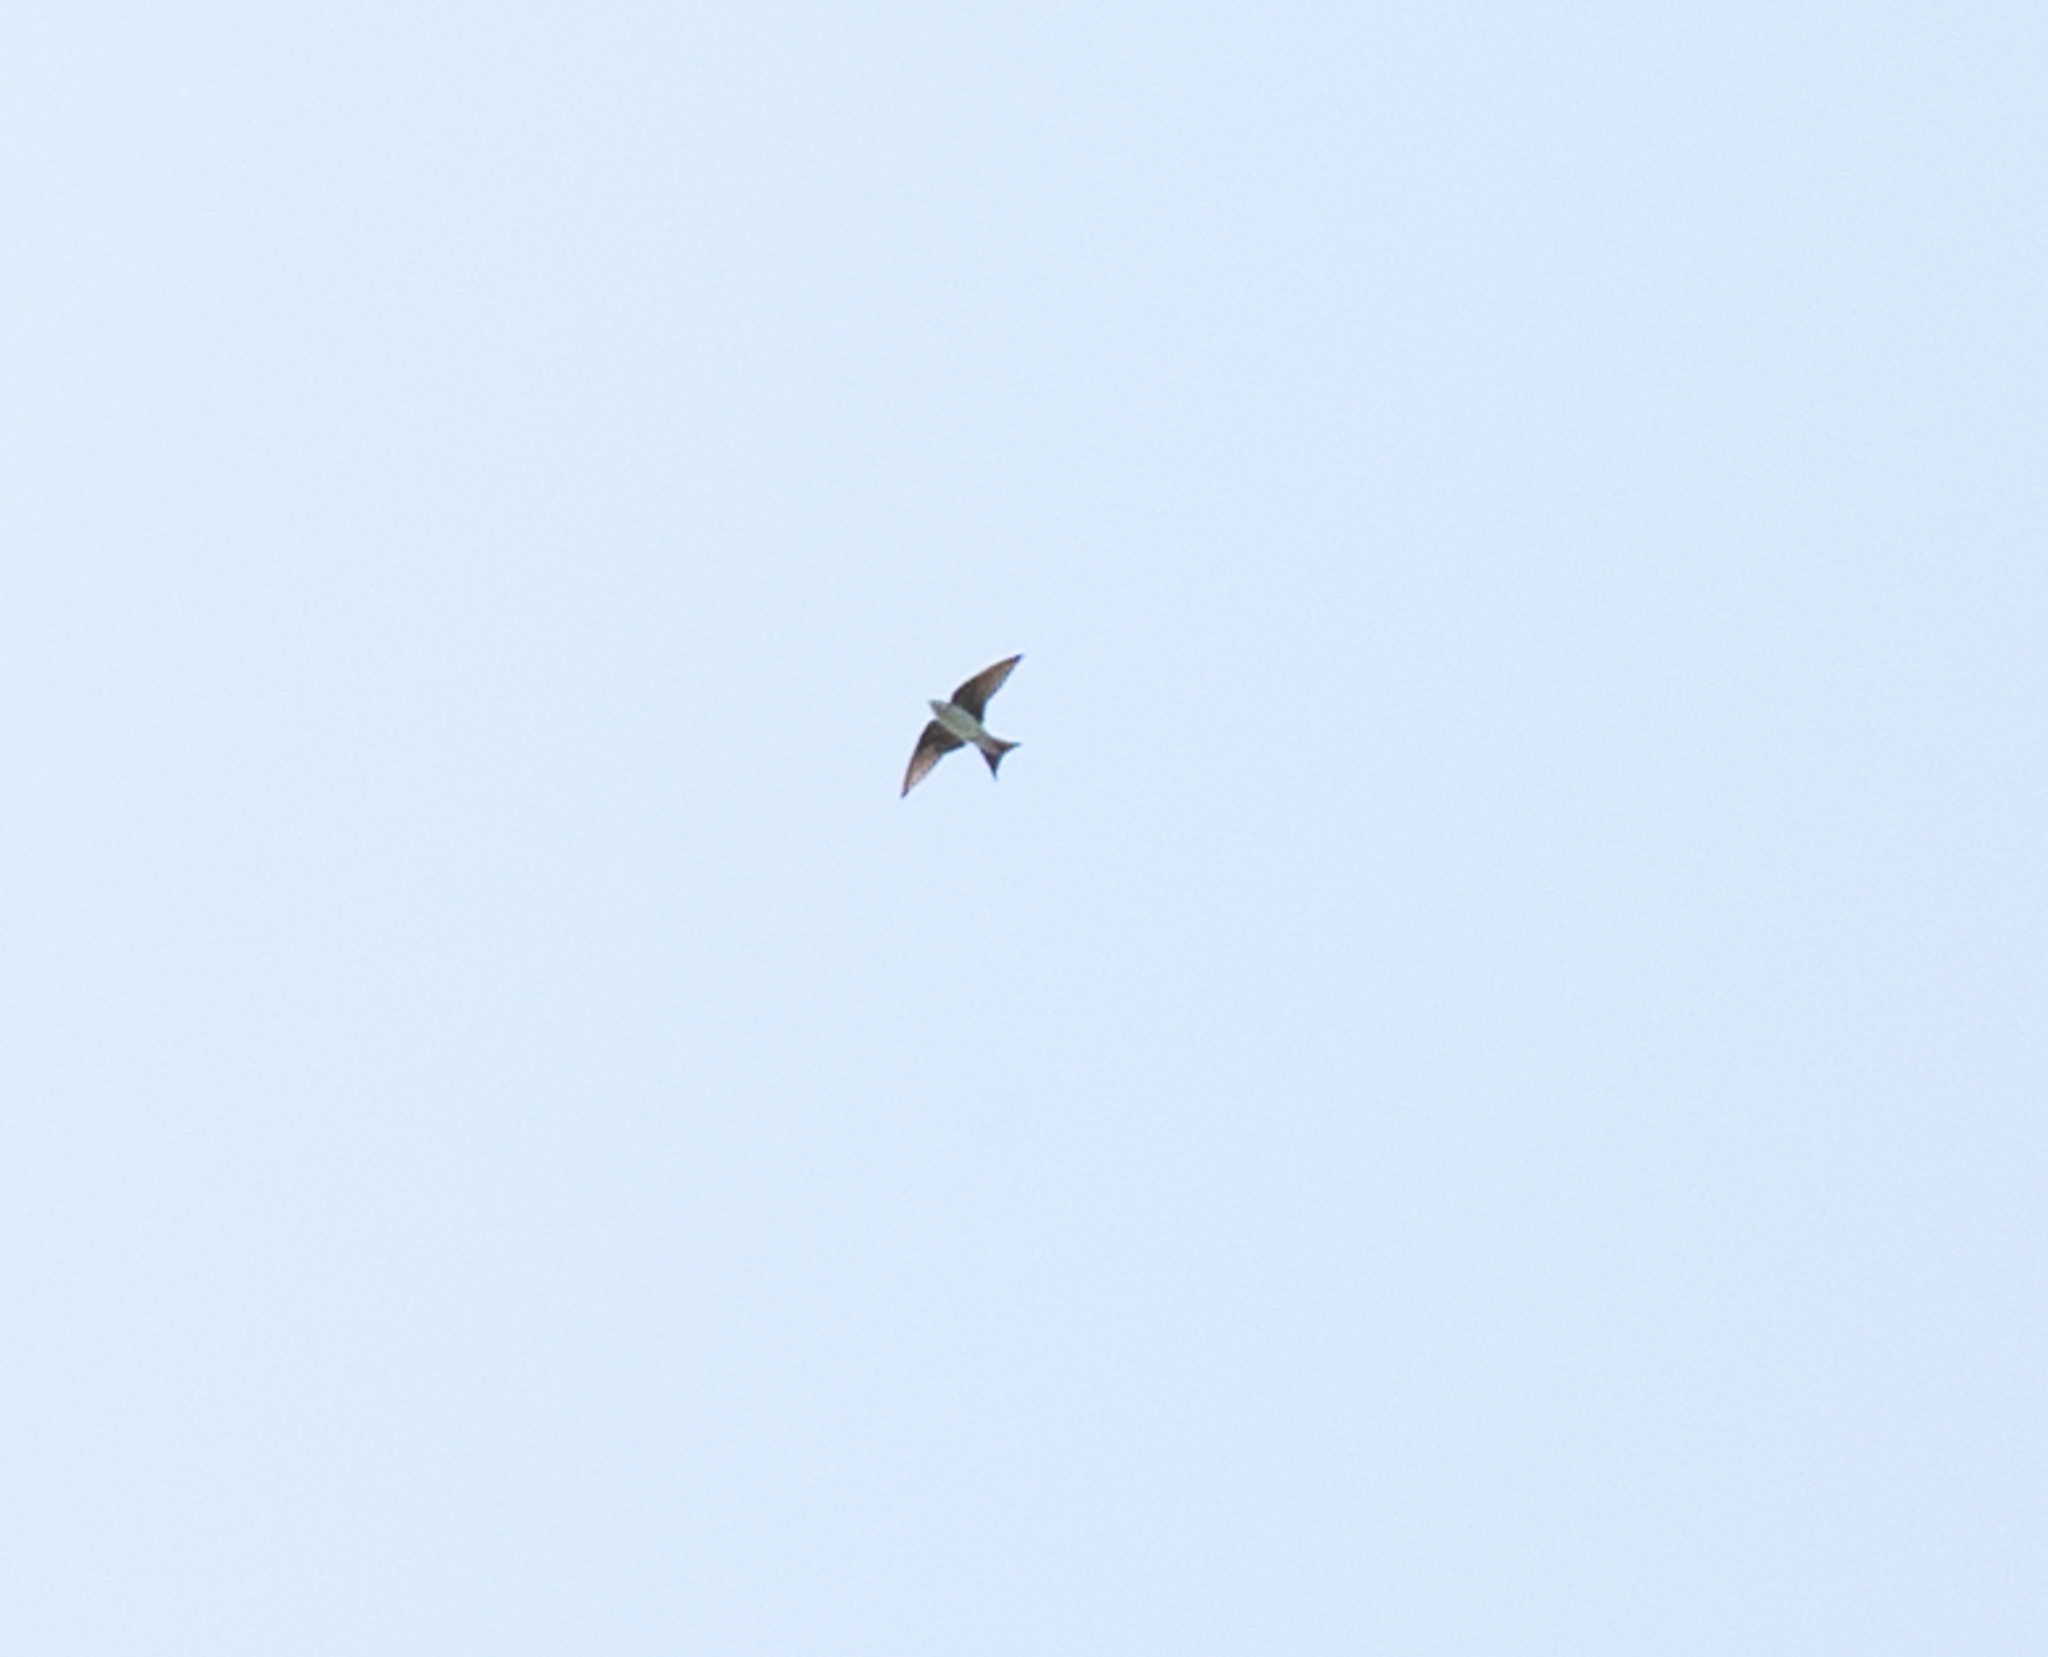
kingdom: Animalia
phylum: Chordata
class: Aves
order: Passeriformes
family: Hirundinidae
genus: Delichon
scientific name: Delichon urbicum
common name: Common house martin
